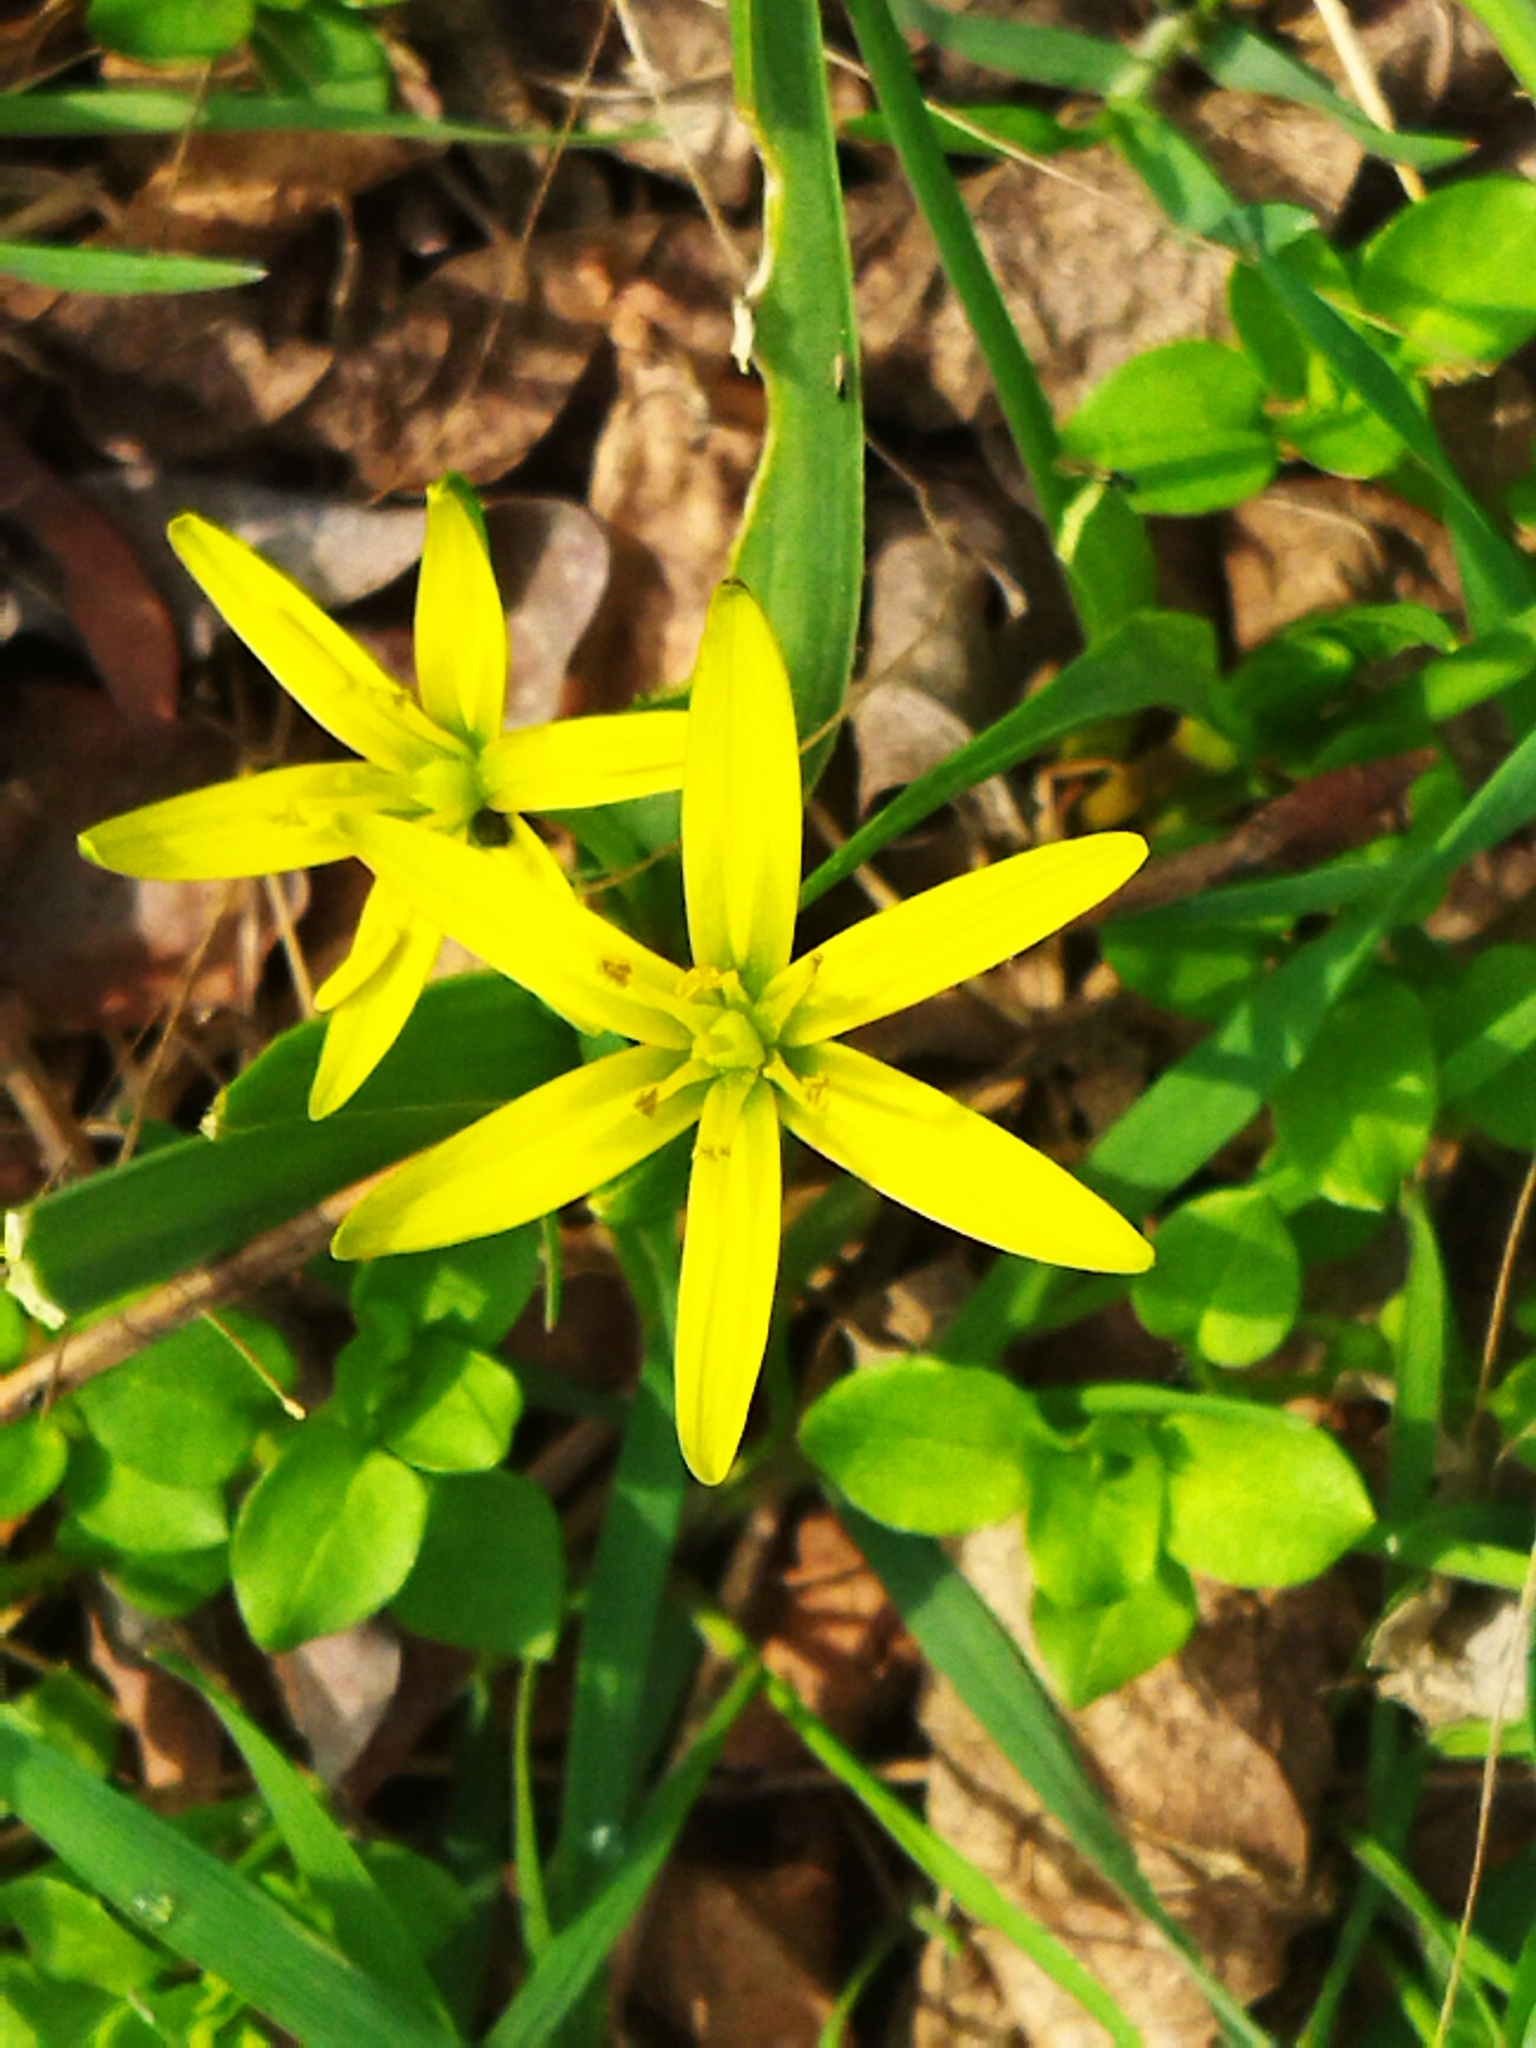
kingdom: Plantae
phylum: Tracheophyta
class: Liliopsida
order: Liliales
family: Liliaceae
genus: Gagea
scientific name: Gagea
